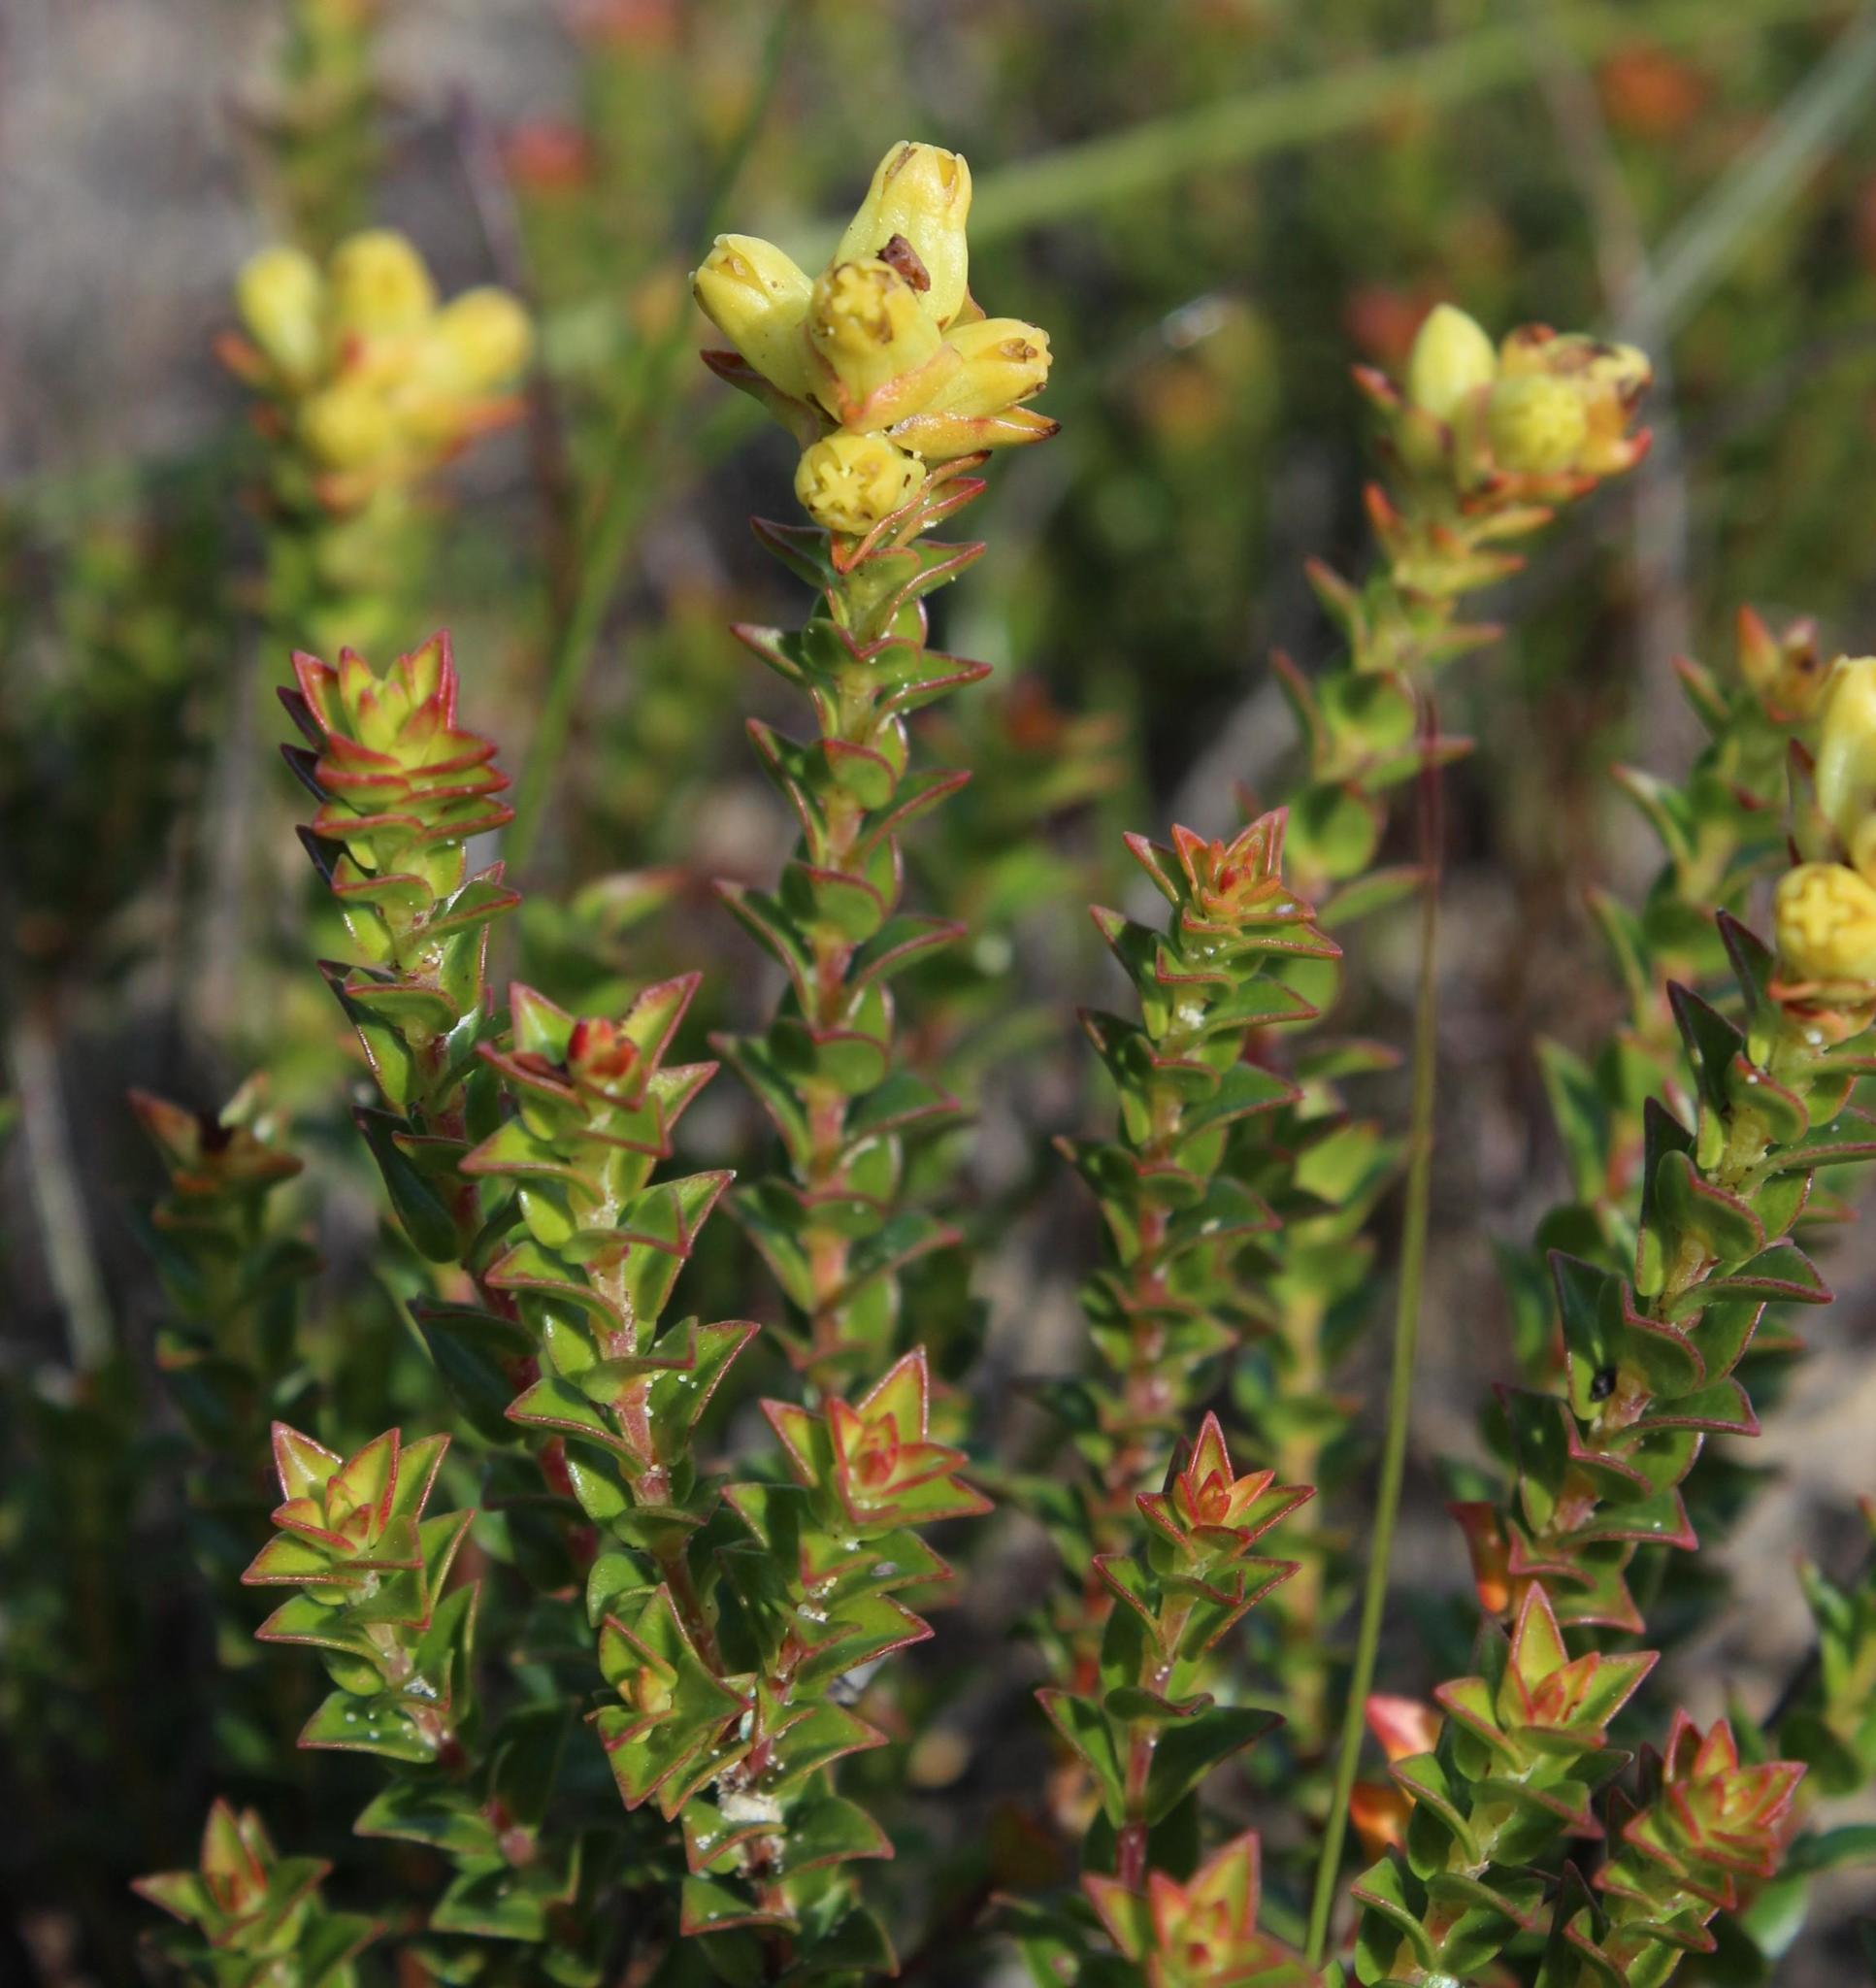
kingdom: Plantae
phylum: Tracheophyta
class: Magnoliopsida
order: Myrtales
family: Penaeaceae
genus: Penaea
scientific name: Penaea mucronata
